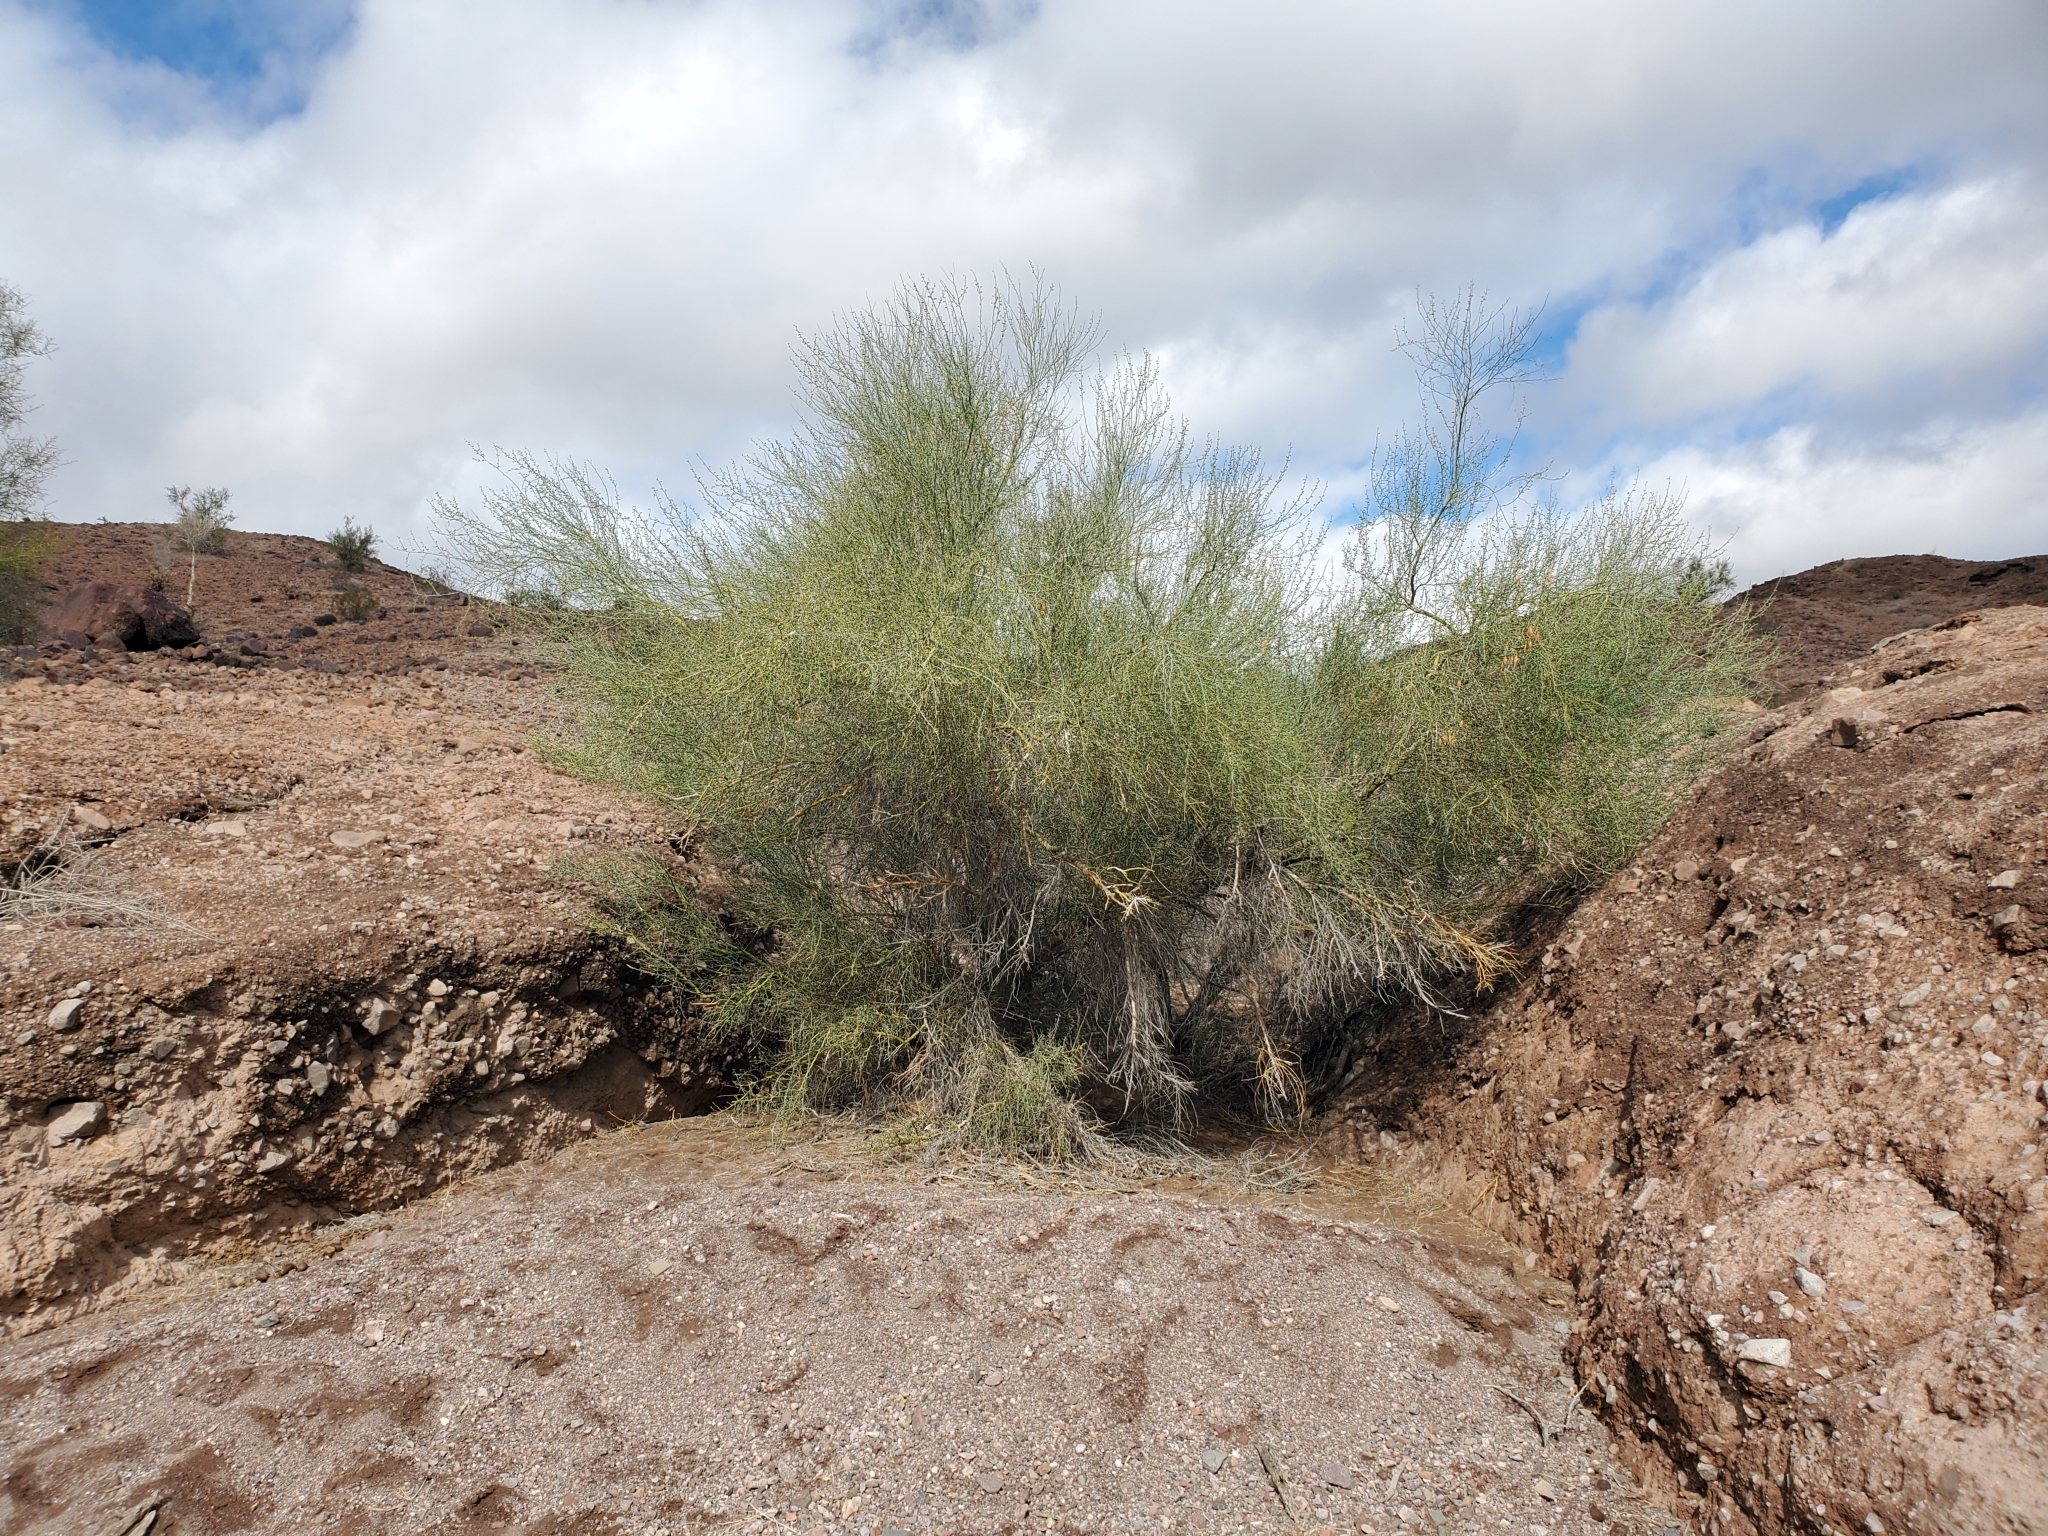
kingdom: Plantae
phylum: Tracheophyta
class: Magnoliopsida
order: Fabales
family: Fabaceae
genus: Parkinsonia
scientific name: Parkinsonia florida
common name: Blue paloverde
